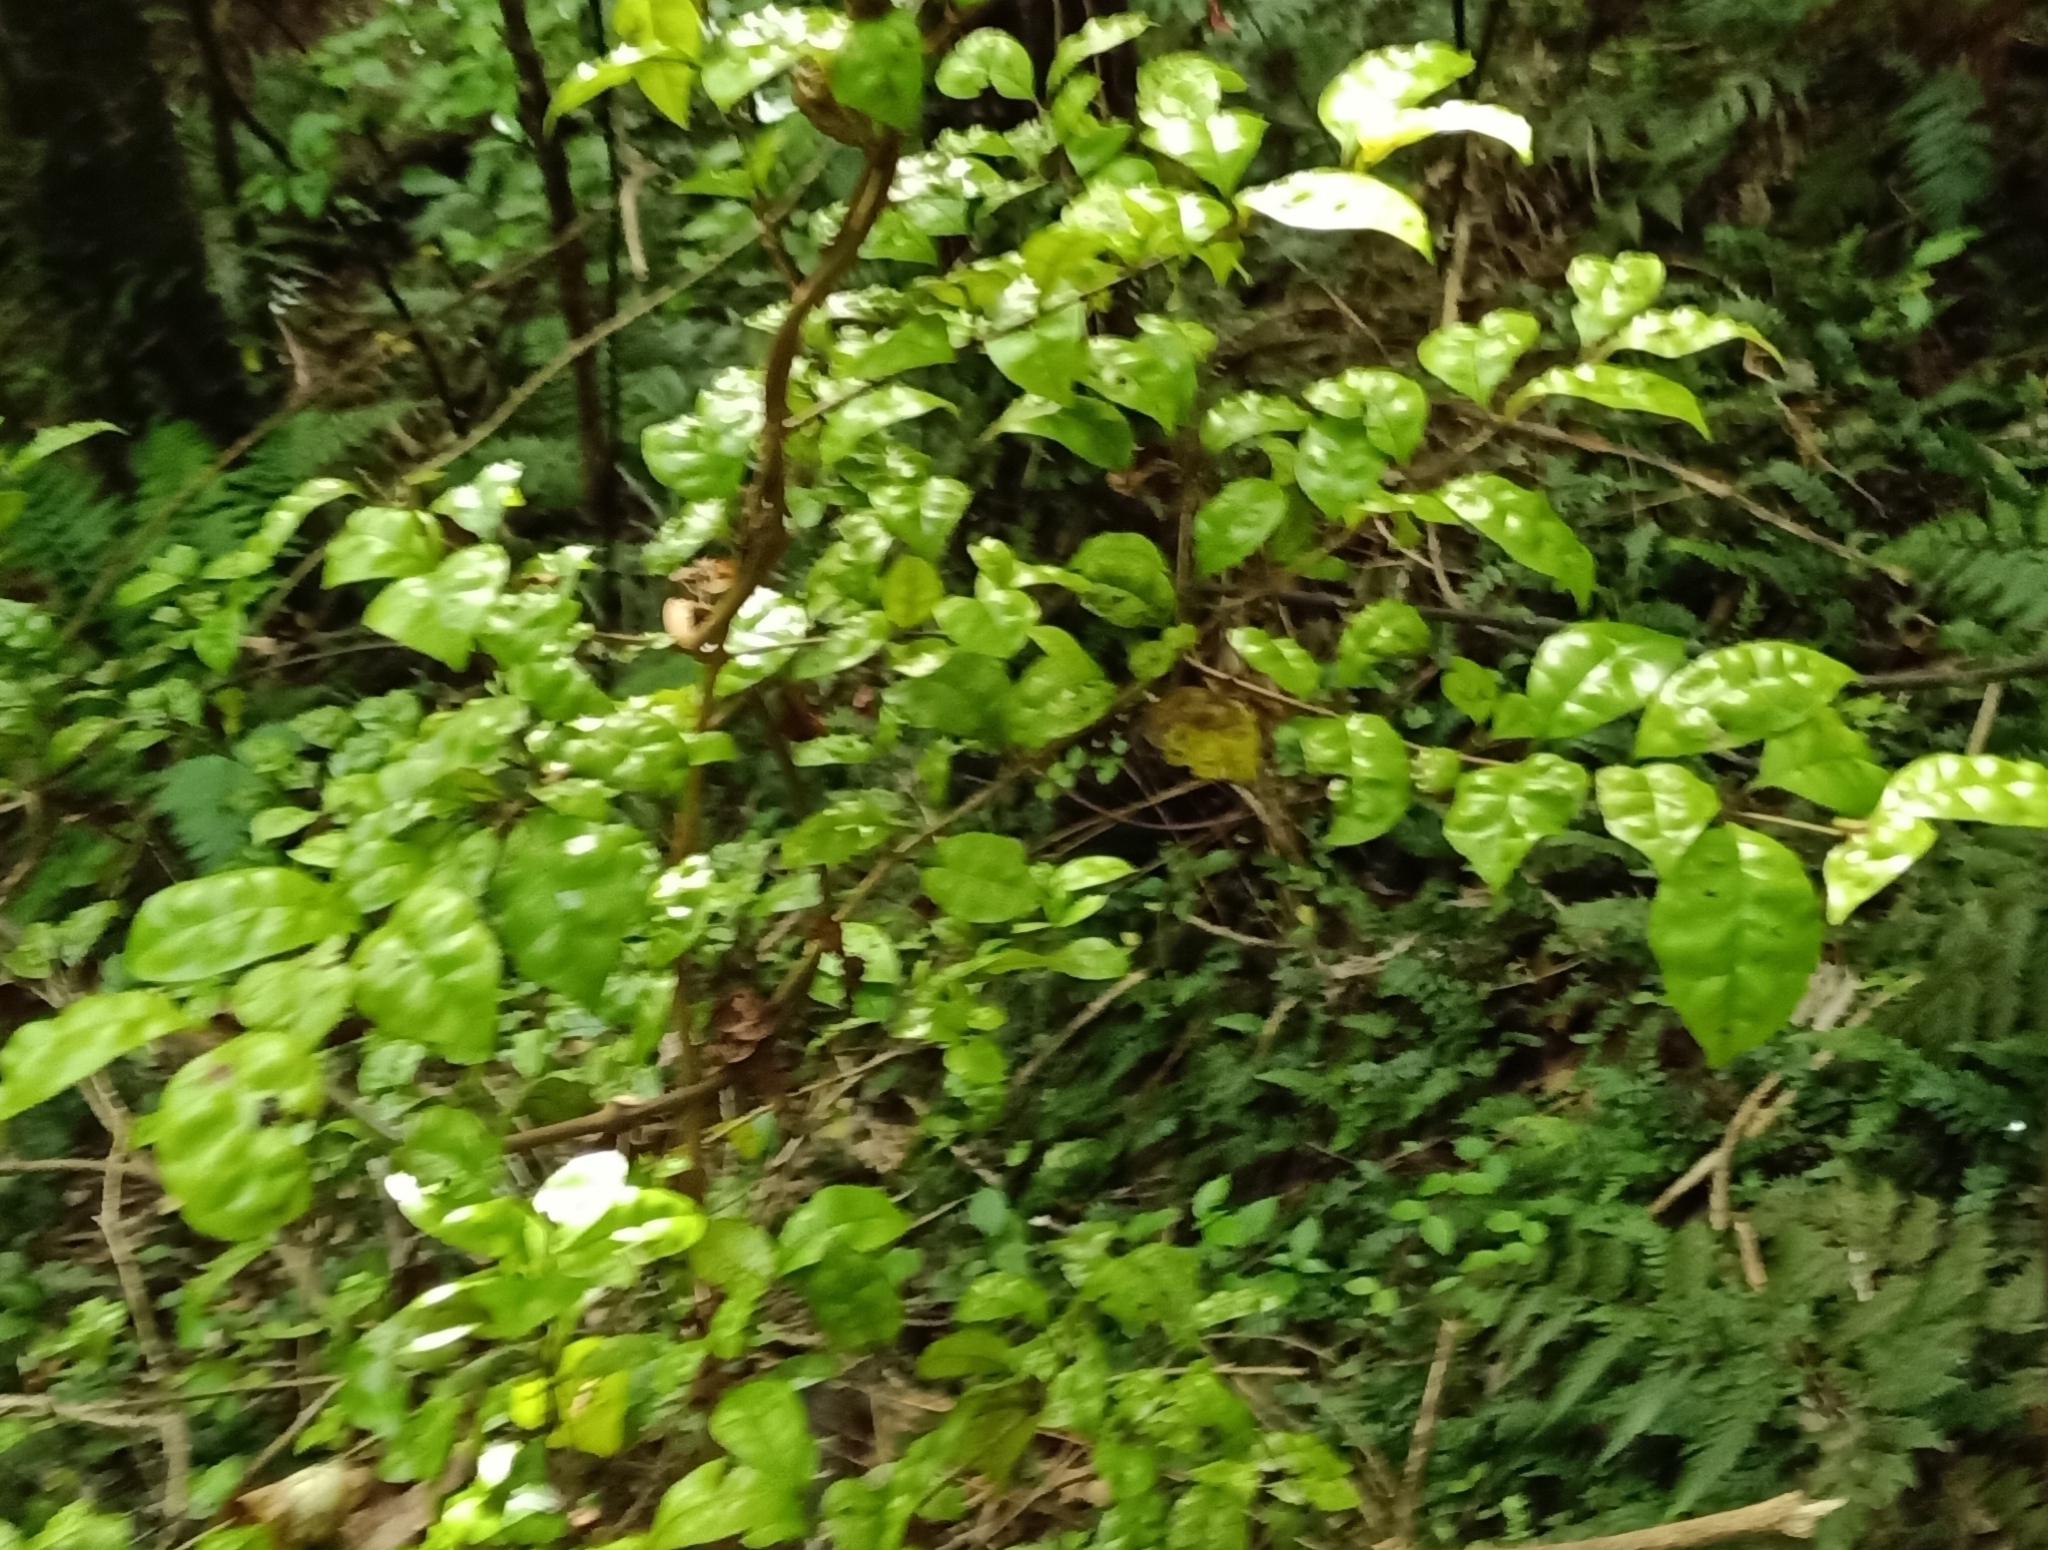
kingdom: Plantae
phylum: Tracheophyta
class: Magnoliopsida
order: Myrtales
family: Myrtaceae
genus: Lophomyrtus
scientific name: Lophomyrtus bullata
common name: Rama rama
